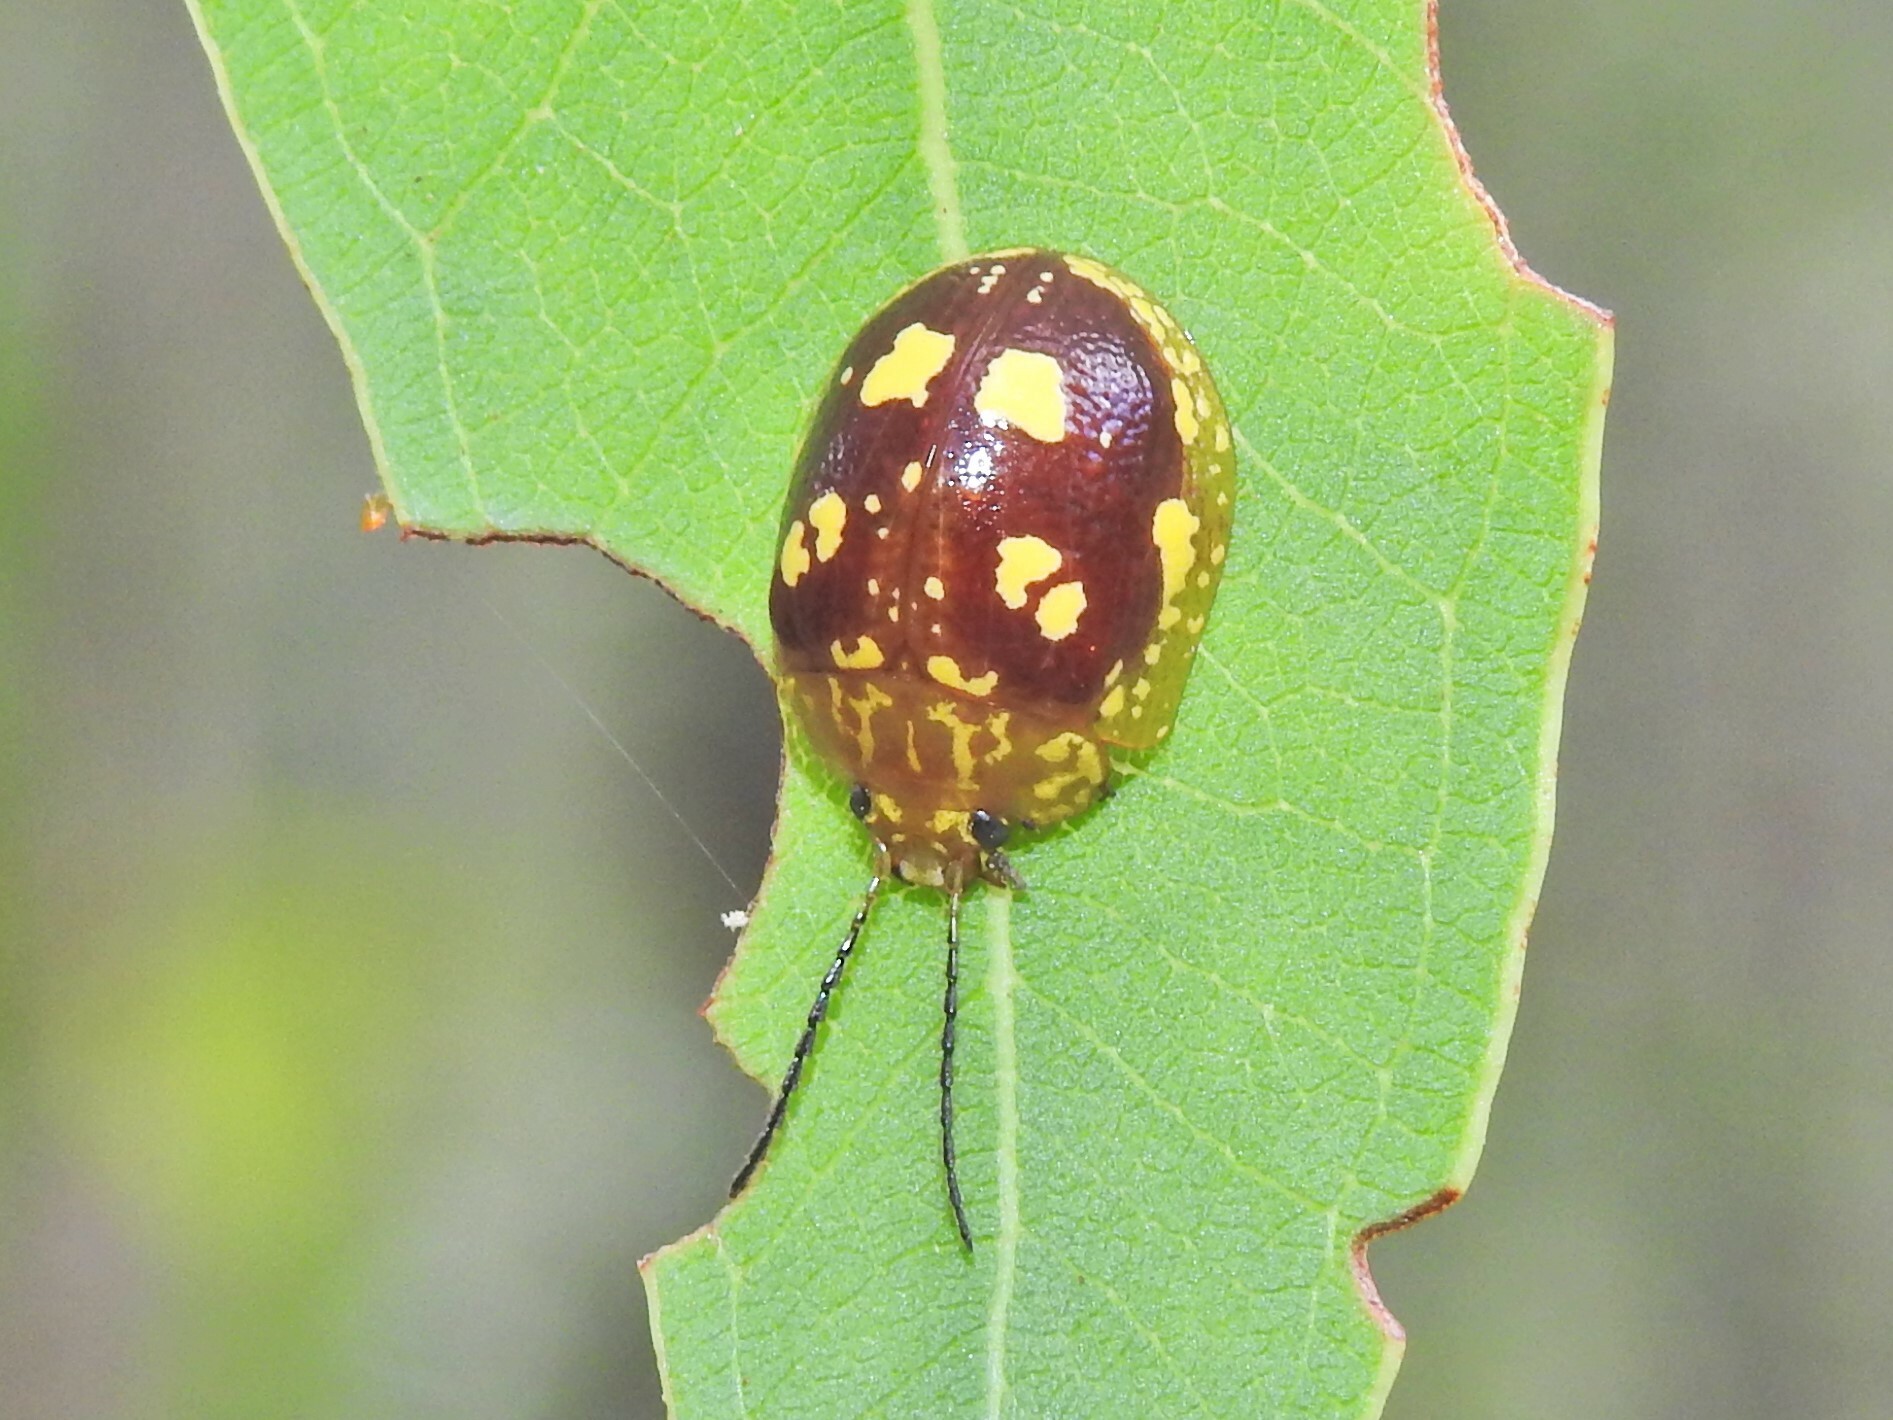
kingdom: Animalia
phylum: Arthropoda
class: Insecta
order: Coleoptera
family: Chrysomelidae
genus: Paropsis
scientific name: Paropsis maculata
